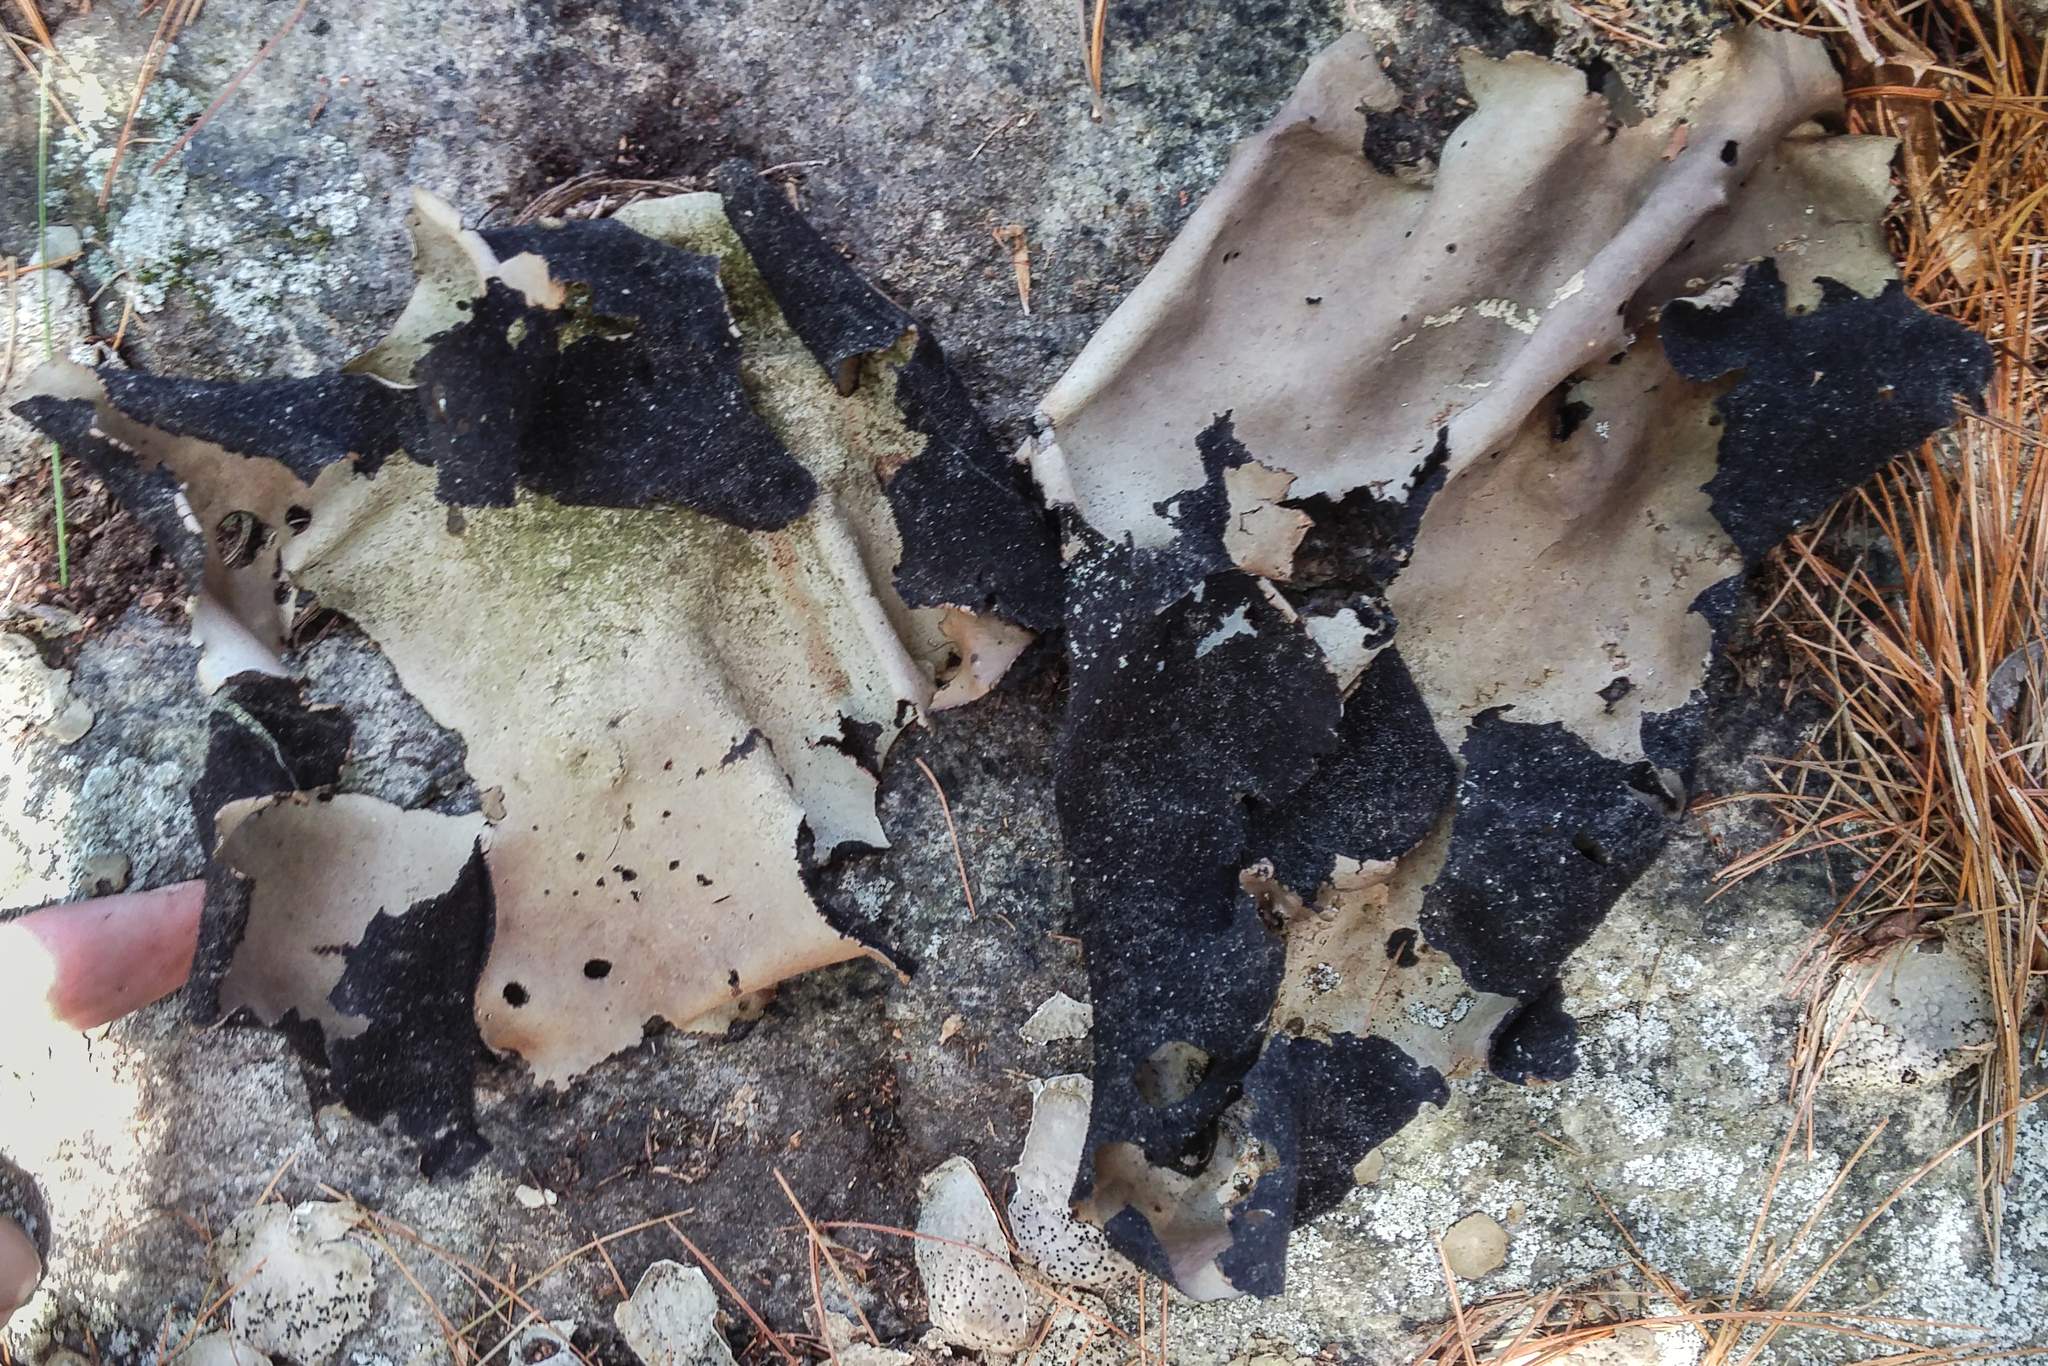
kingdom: Fungi
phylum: Ascomycota
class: Lecanoromycetes
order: Umbilicariales
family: Umbilicariaceae
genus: Umbilicaria
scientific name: Umbilicaria mammulata
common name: Smooth rock tripe
